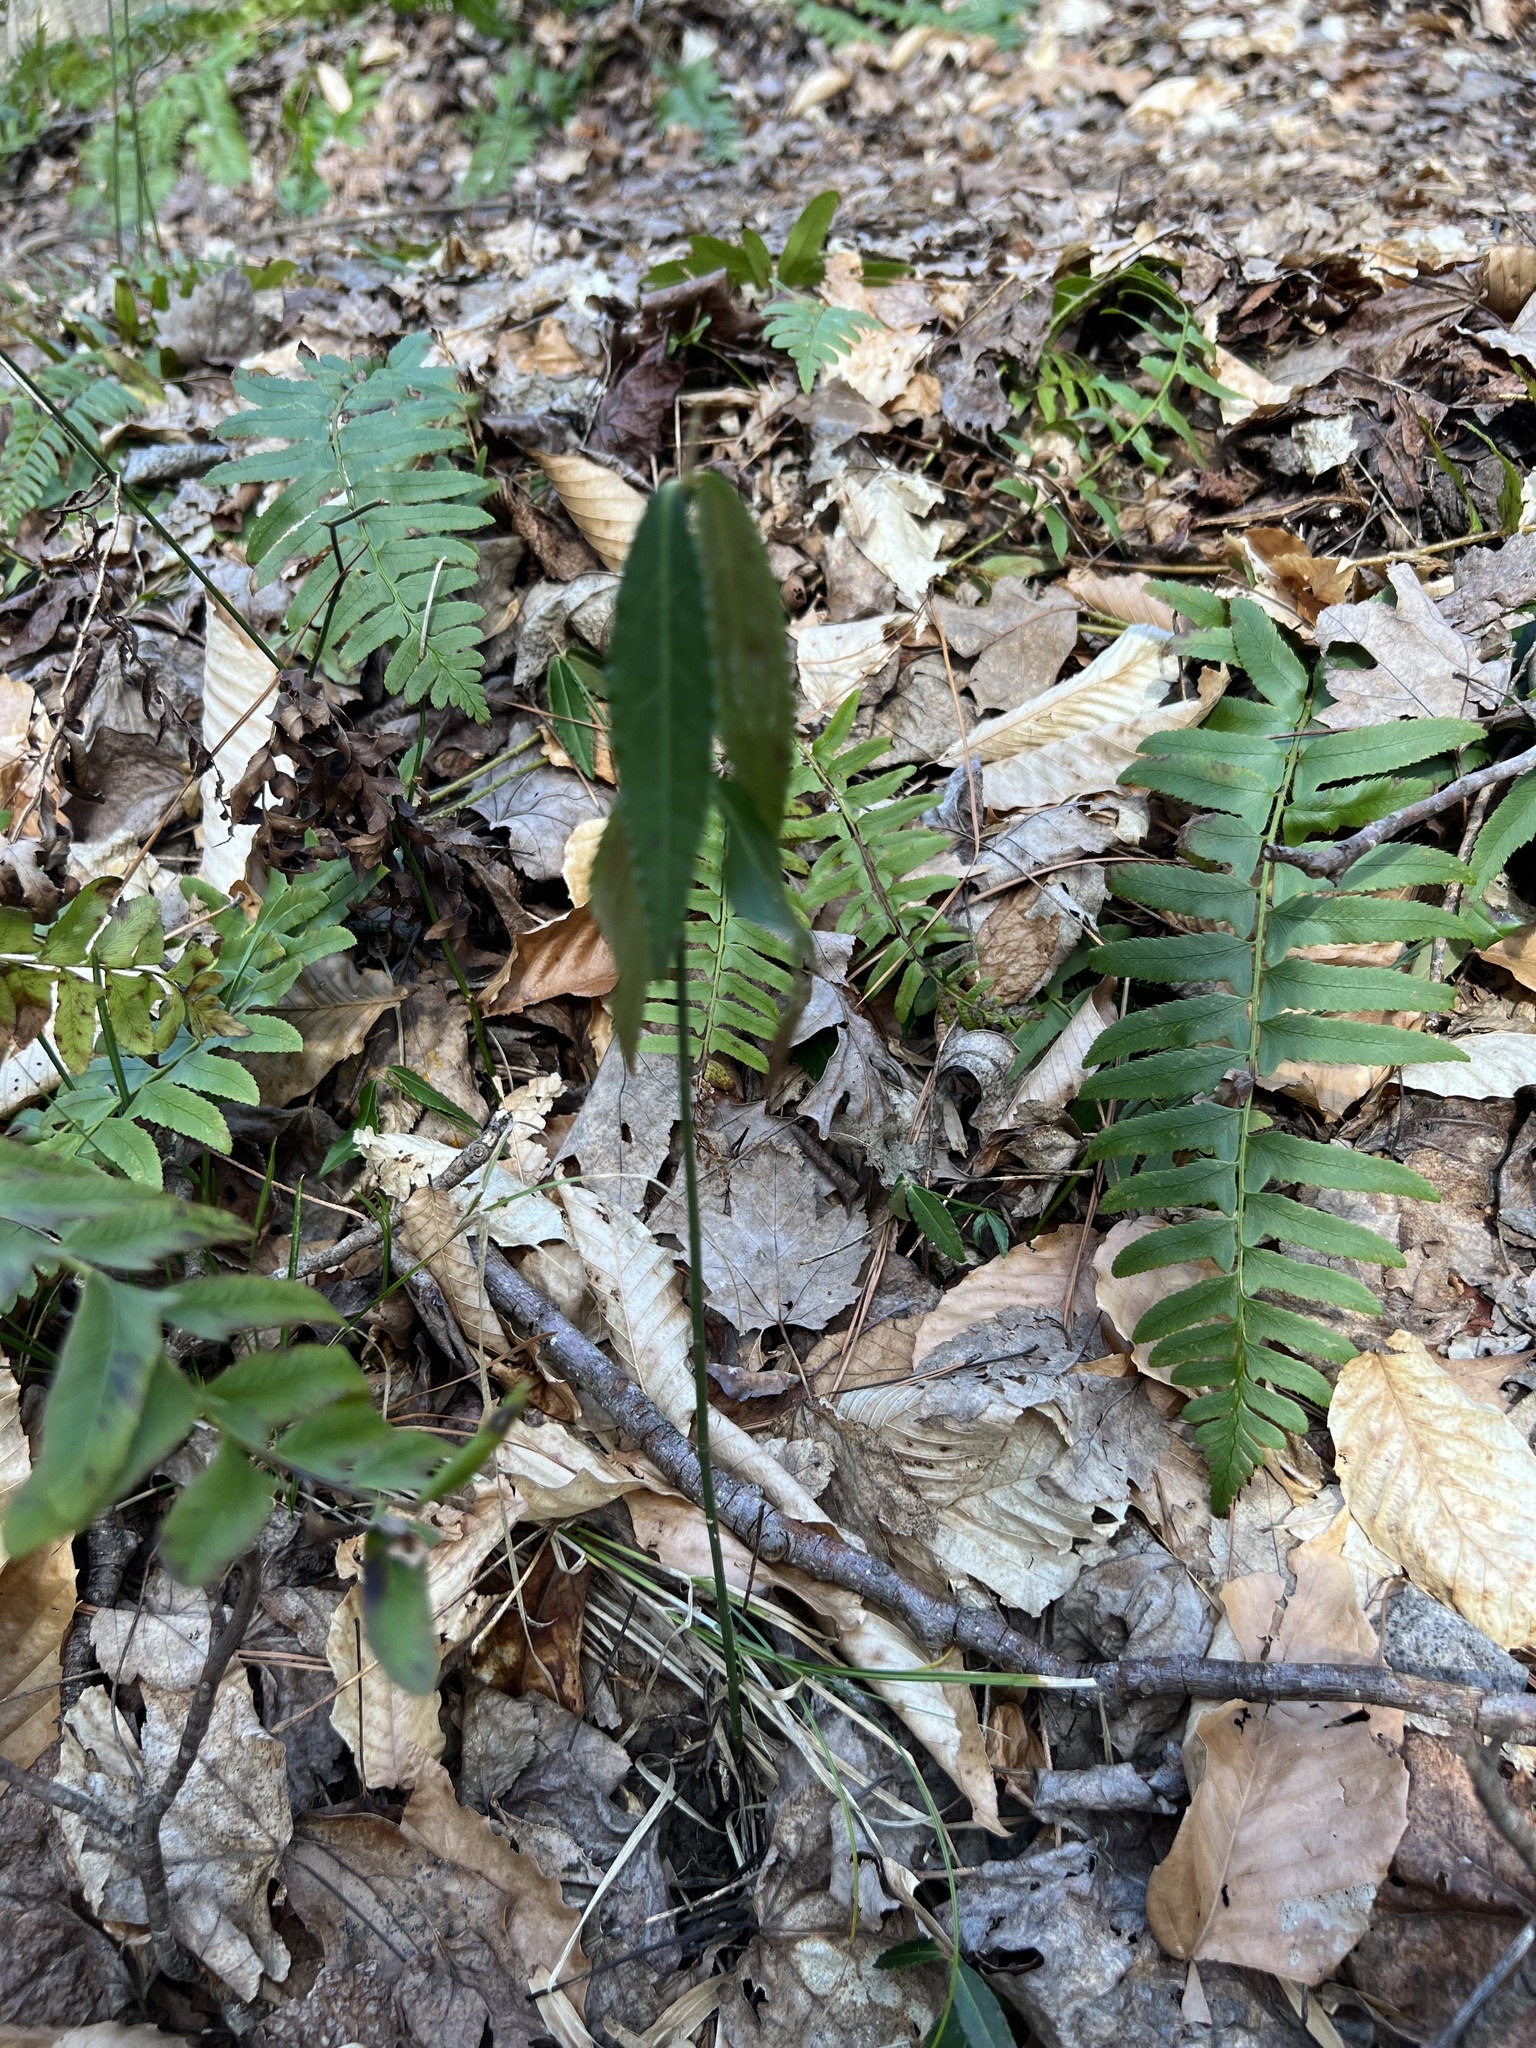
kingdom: Plantae
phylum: Tracheophyta
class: Magnoliopsida
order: Celastrales
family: Celastraceae
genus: Euonymus
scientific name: Euonymus americanus
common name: Bursting-heart
